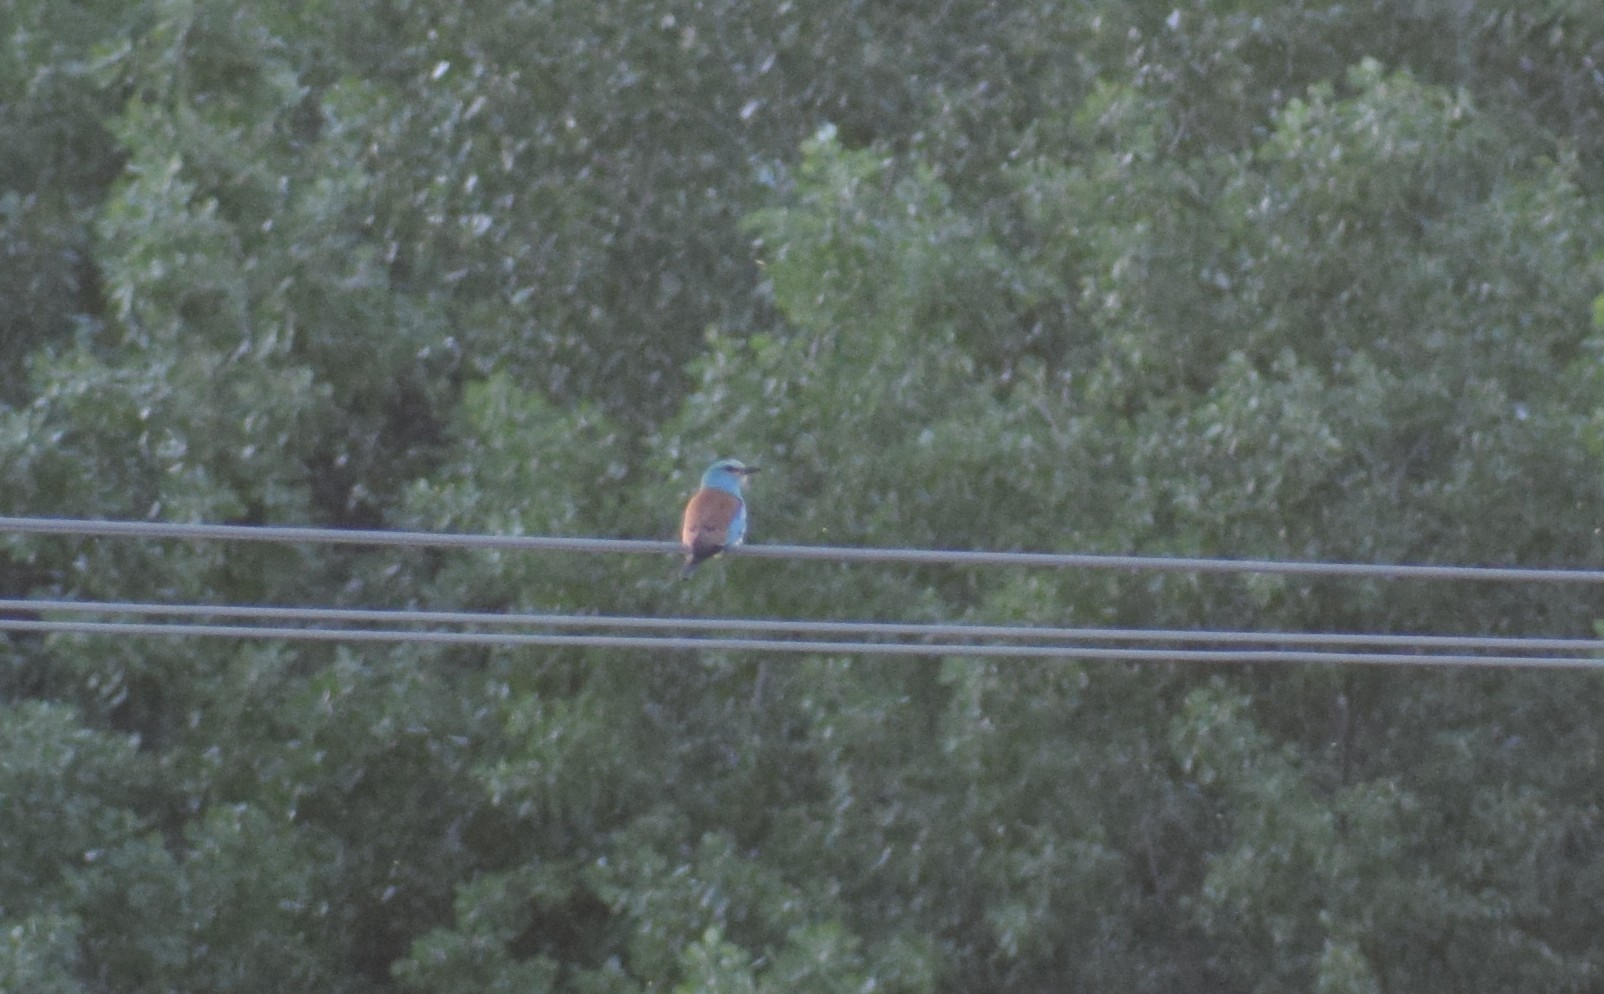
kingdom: Animalia
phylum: Chordata
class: Aves
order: Coraciiformes
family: Coraciidae
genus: Coracias
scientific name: Coracias garrulus
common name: European roller
